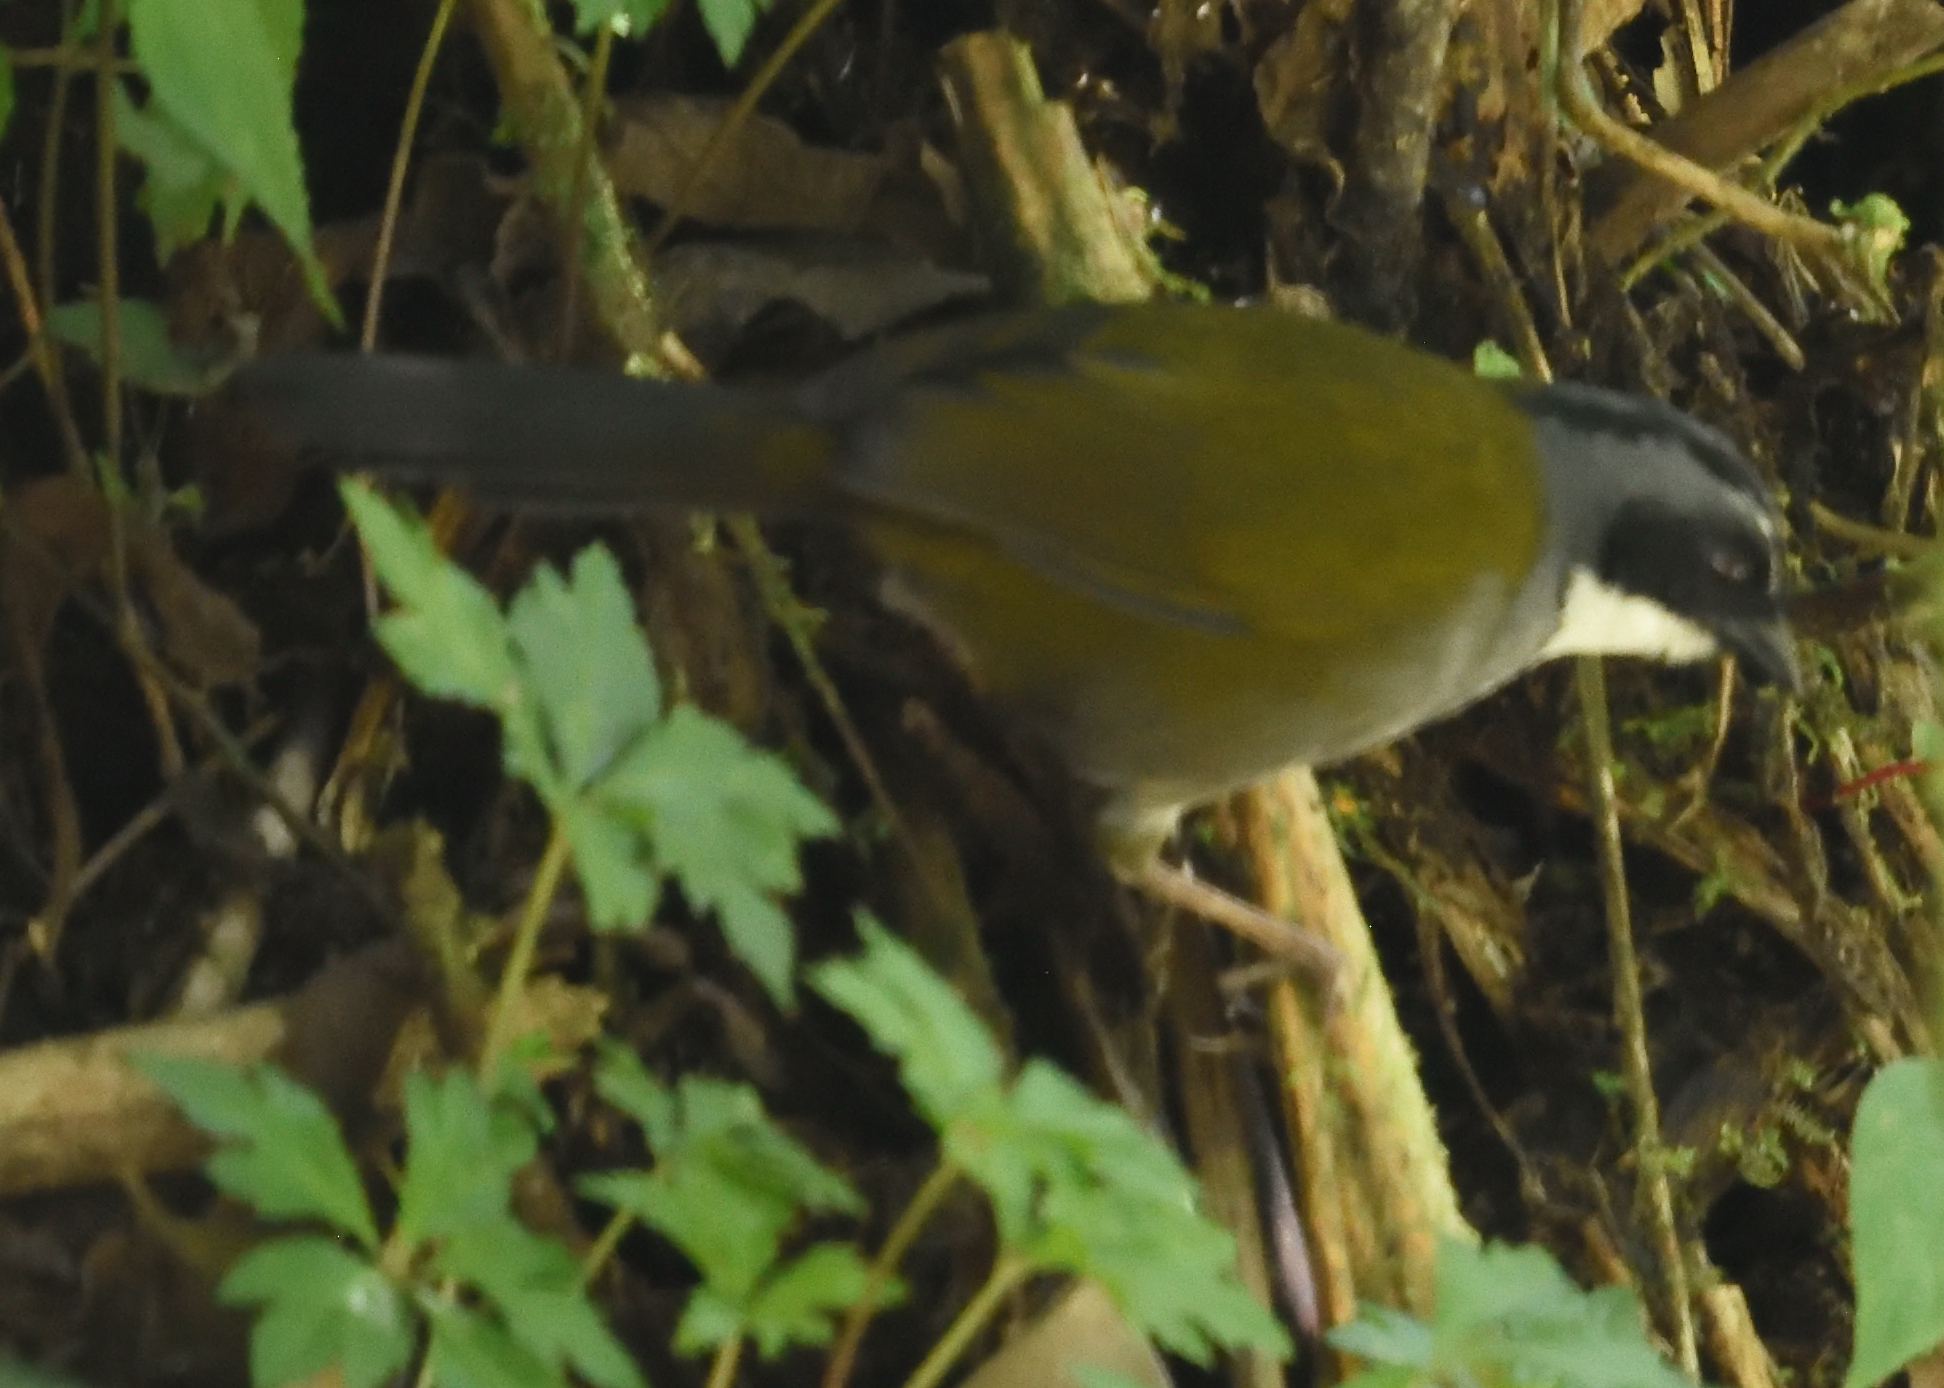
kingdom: Animalia
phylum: Chordata
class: Aves
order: Passeriformes
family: Passerellidae
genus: Arremon
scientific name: Arremon assimilis
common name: Grey-browed brushfinch
